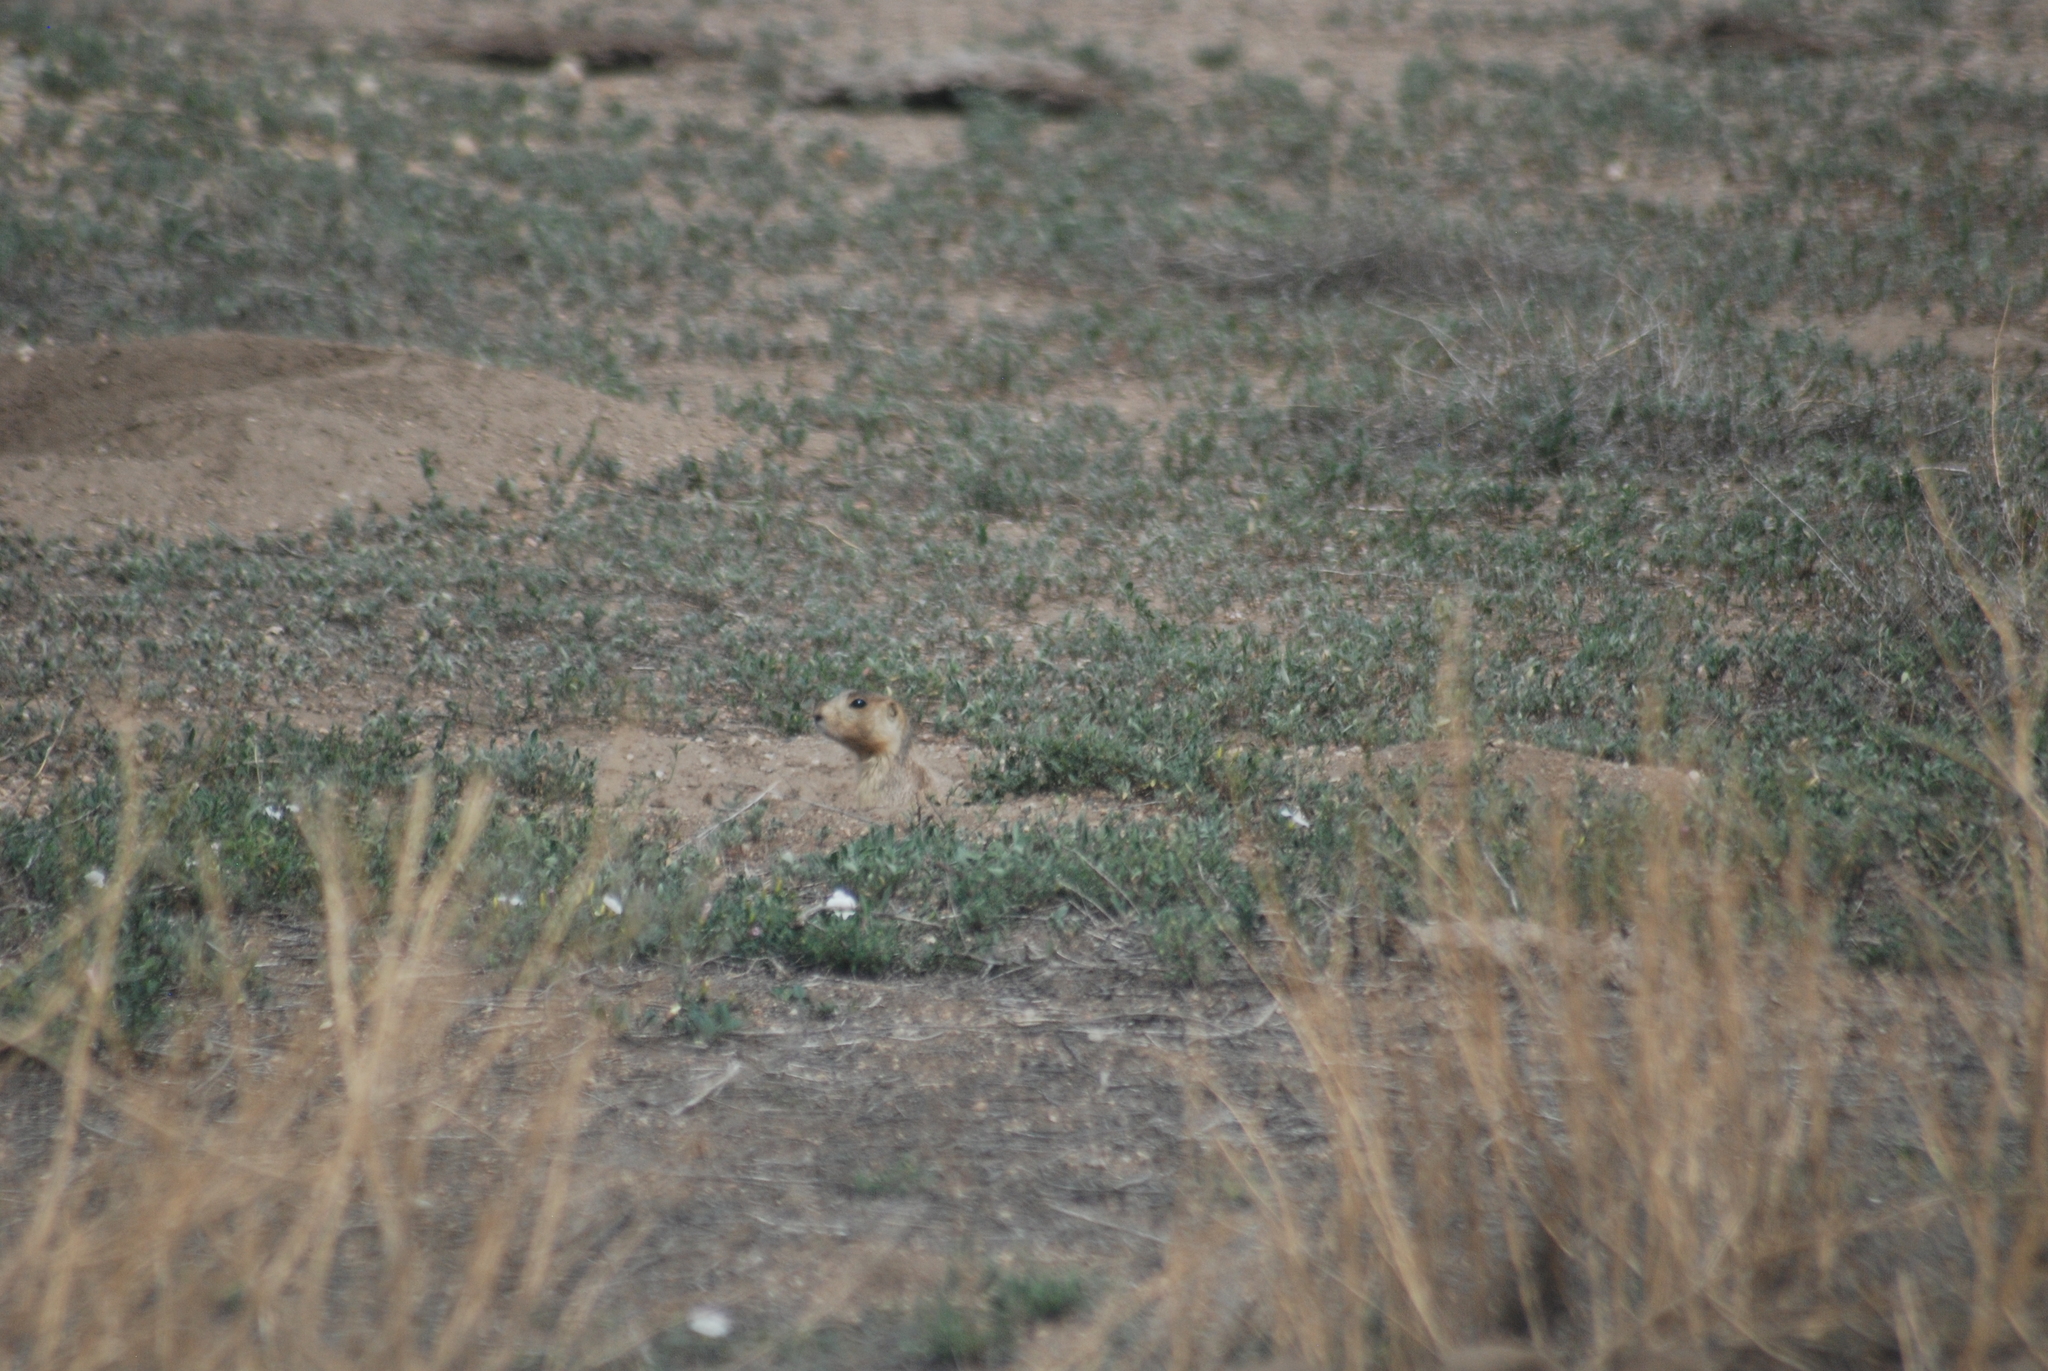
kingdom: Animalia
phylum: Chordata
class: Mammalia
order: Rodentia
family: Sciuridae
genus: Cynomys
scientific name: Cynomys gunnisoni
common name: Gunnison's prairie dog
